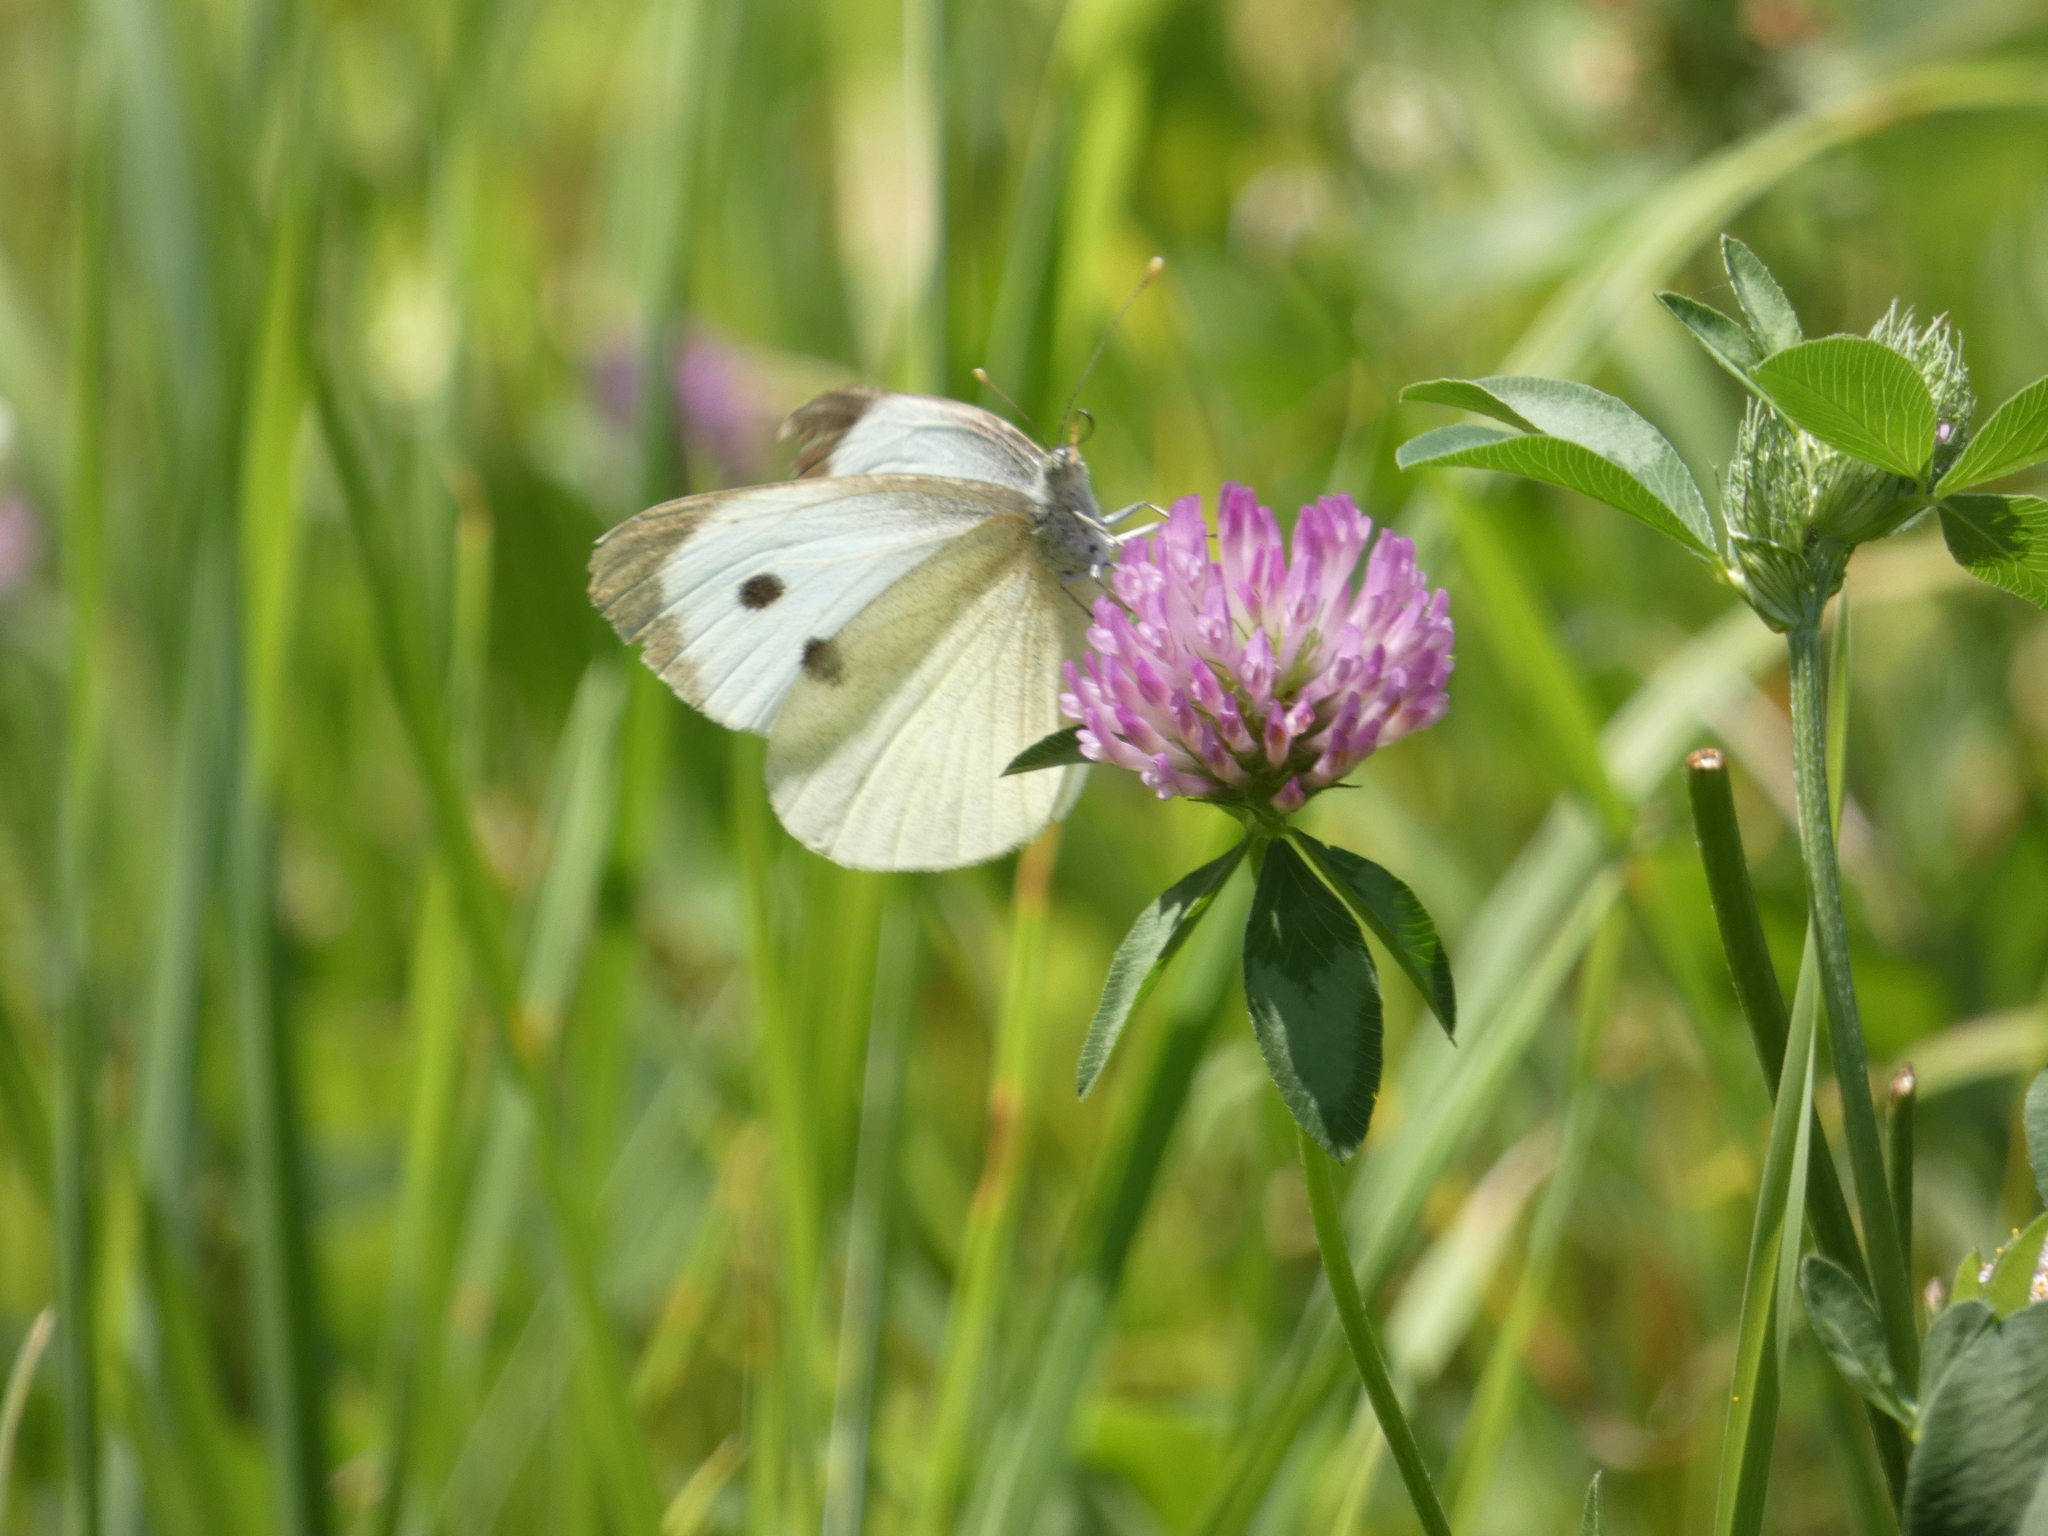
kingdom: Animalia
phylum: Arthropoda
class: Insecta
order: Lepidoptera
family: Pieridae
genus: Pieris
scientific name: Pieris brassicae
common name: Large white
